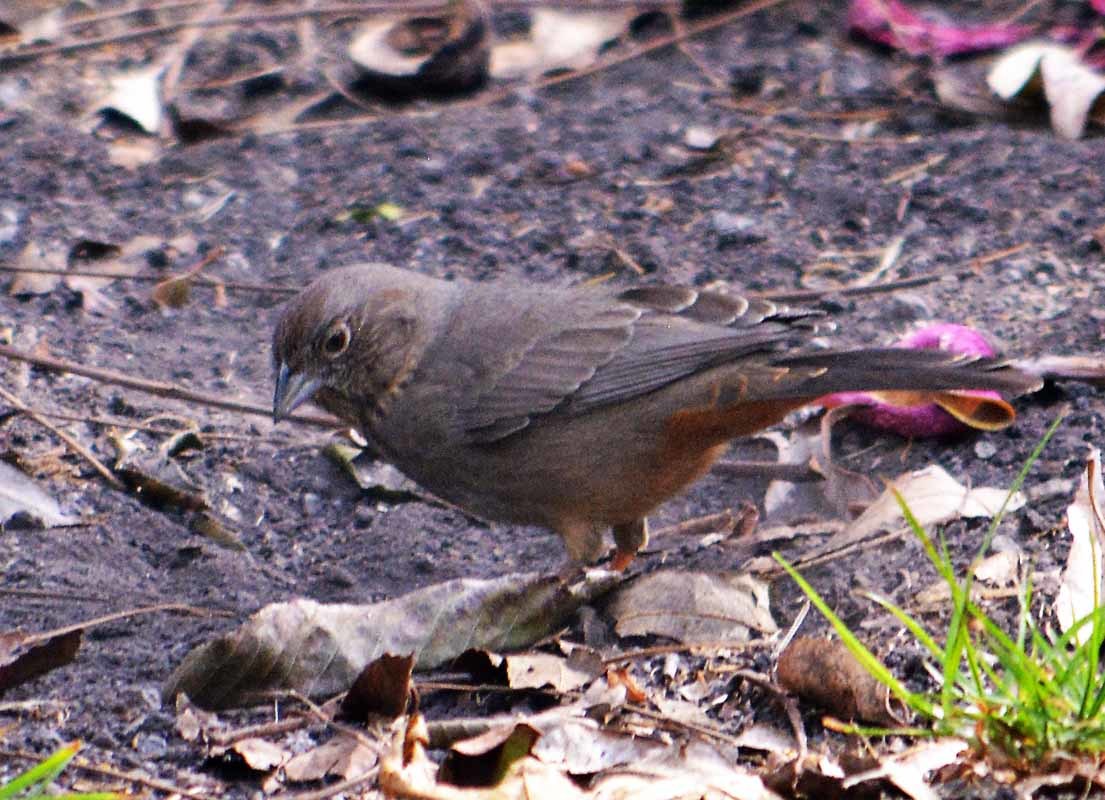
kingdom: Animalia
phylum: Chordata
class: Aves
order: Passeriformes
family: Passerellidae
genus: Melozone
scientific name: Melozone fusca
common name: Canyon towhee
